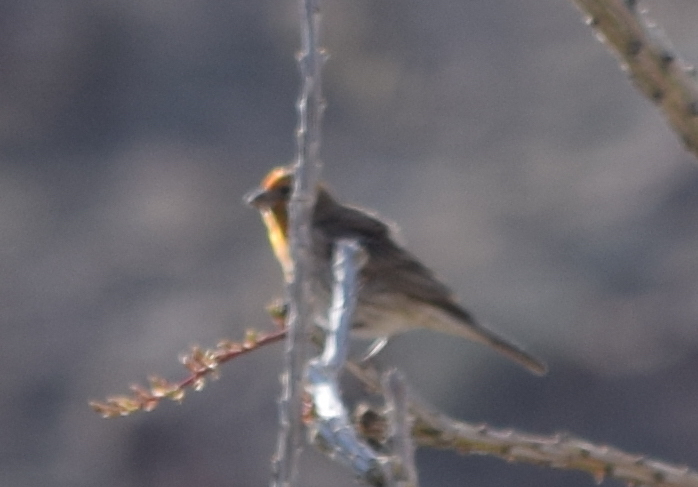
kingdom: Animalia
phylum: Chordata
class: Aves
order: Passeriformes
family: Fringillidae
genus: Haemorhous
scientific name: Haemorhous mexicanus
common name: House finch
